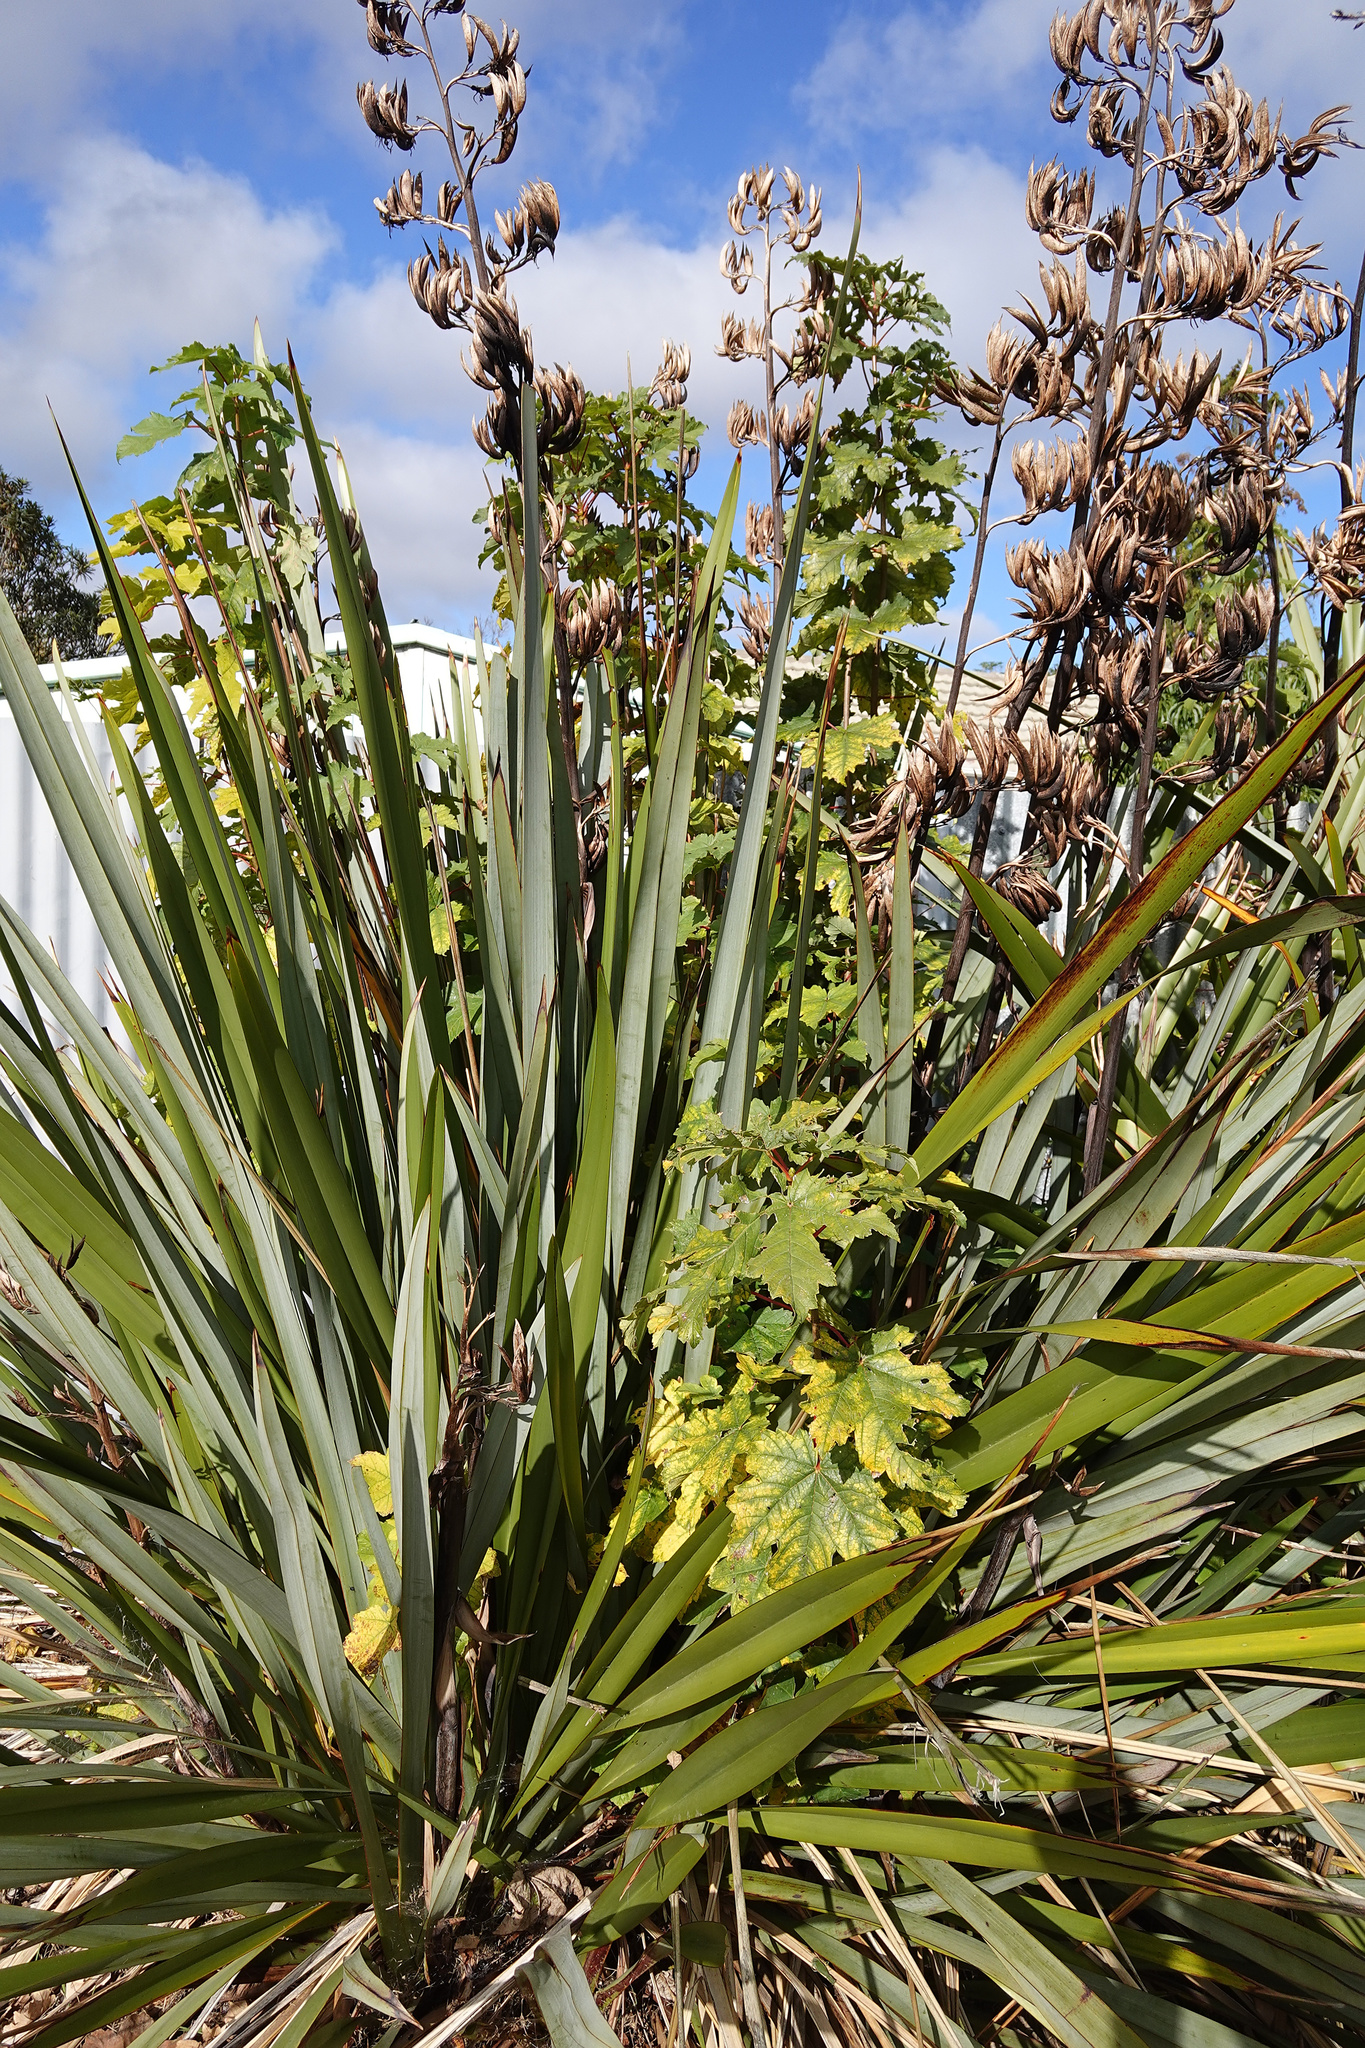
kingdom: Plantae
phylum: Tracheophyta
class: Magnoliopsida
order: Sapindales
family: Sapindaceae
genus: Acer
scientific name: Acer pseudoplatanus
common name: Sycamore
